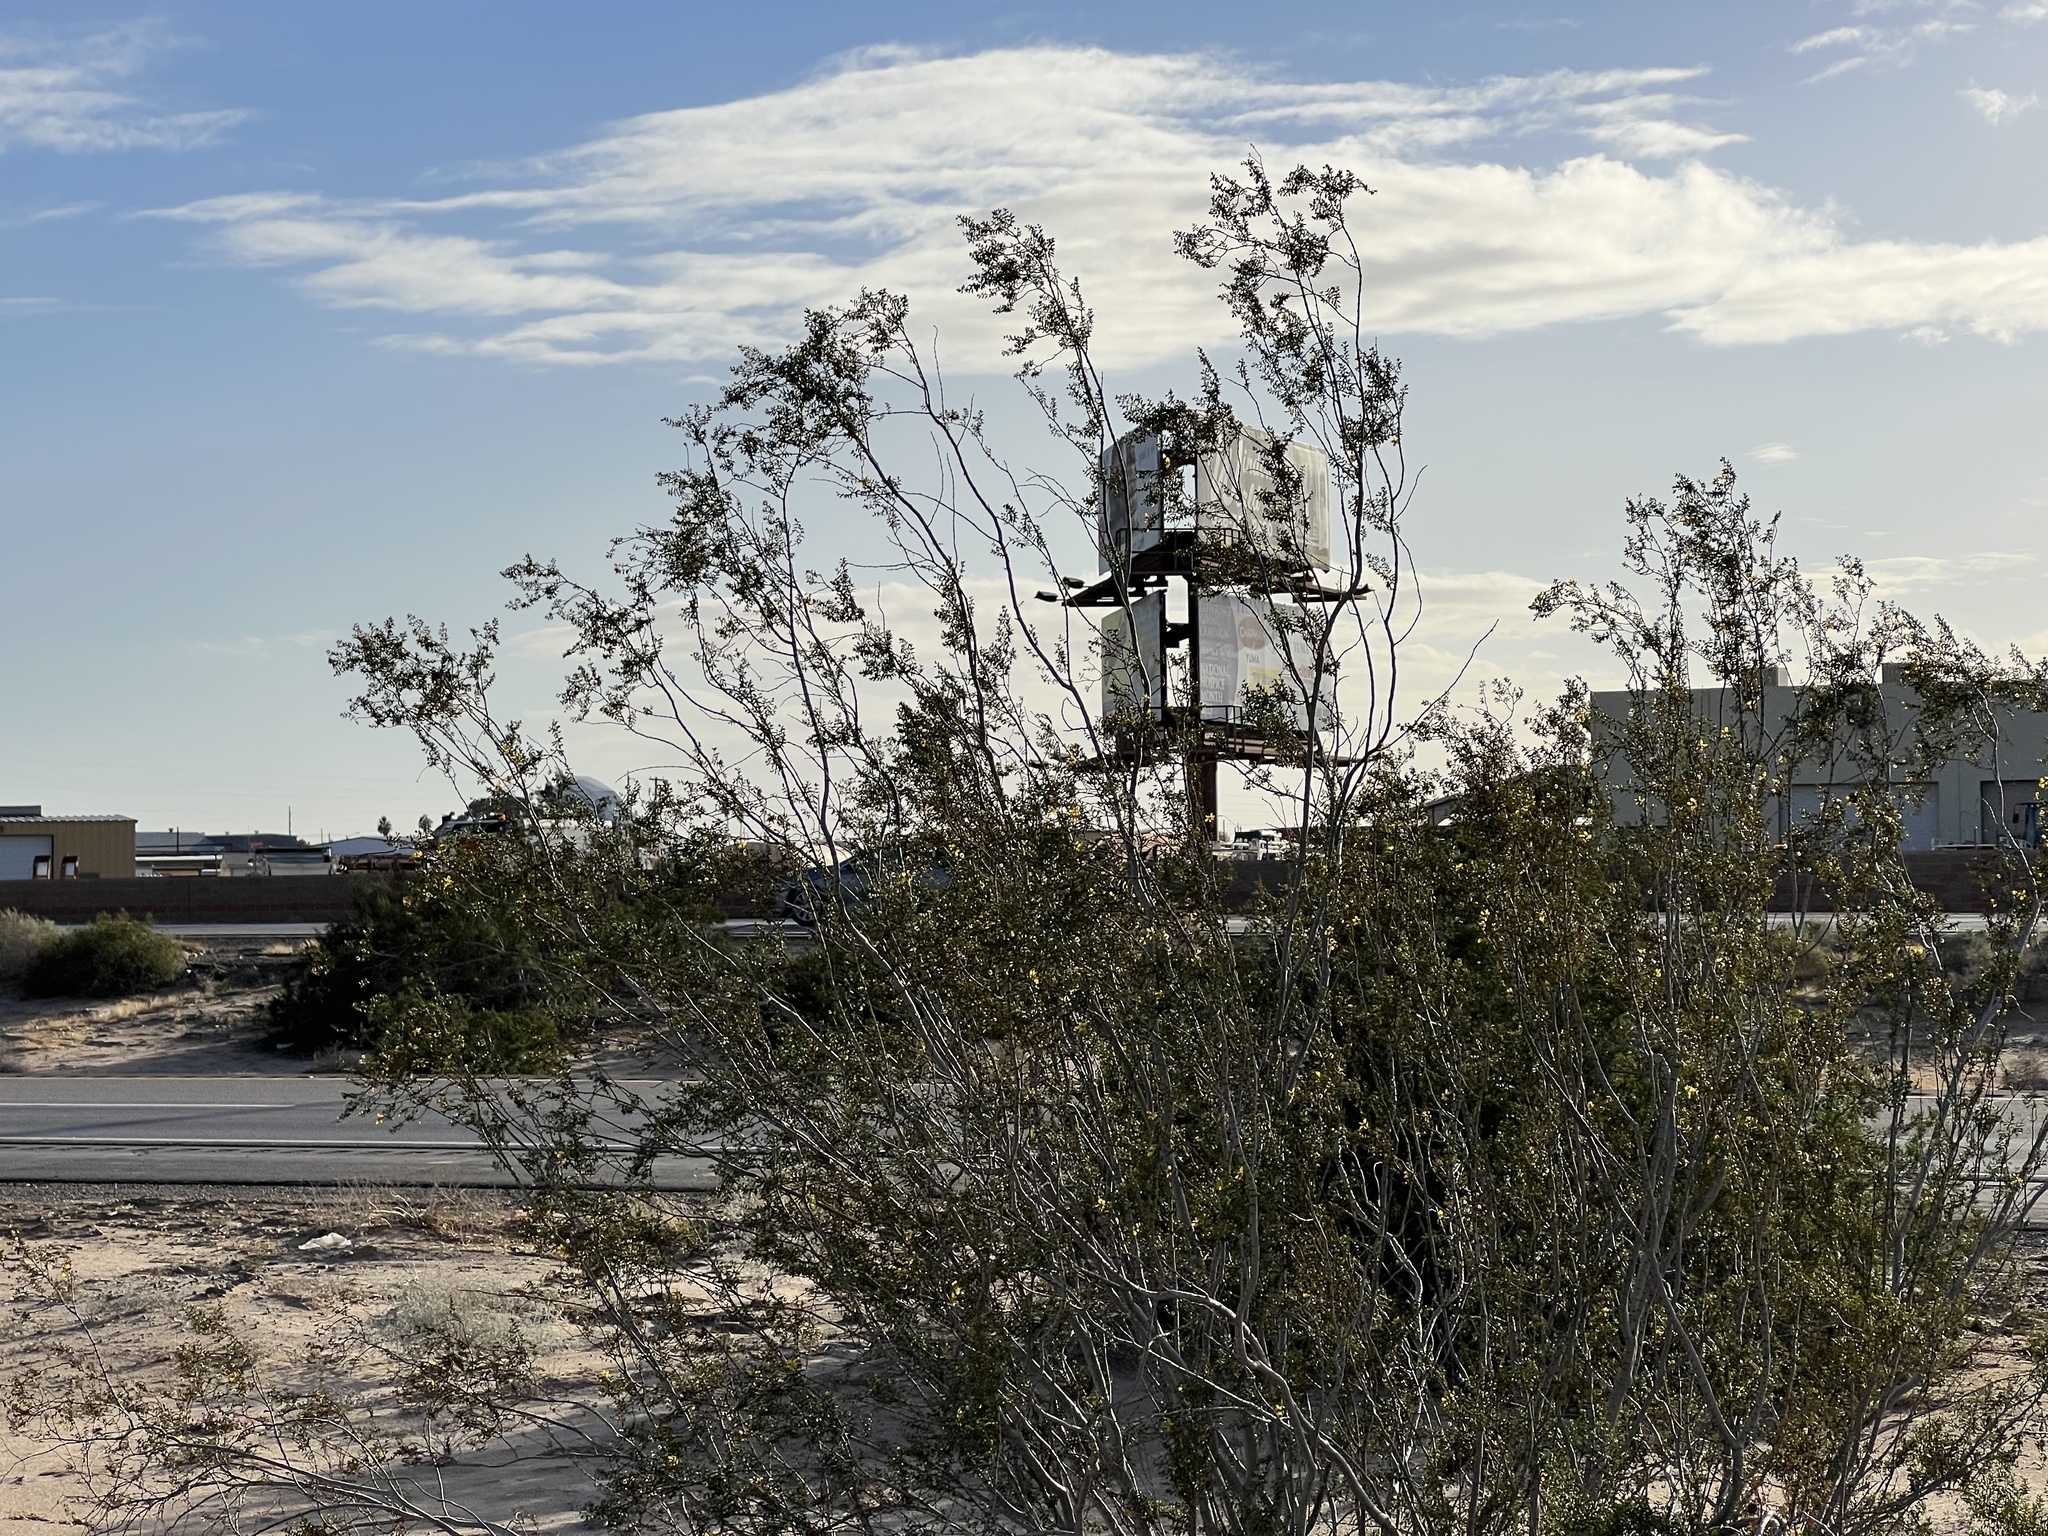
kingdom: Plantae
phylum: Tracheophyta
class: Magnoliopsida
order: Zygophyllales
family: Zygophyllaceae
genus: Larrea
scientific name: Larrea tridentata
